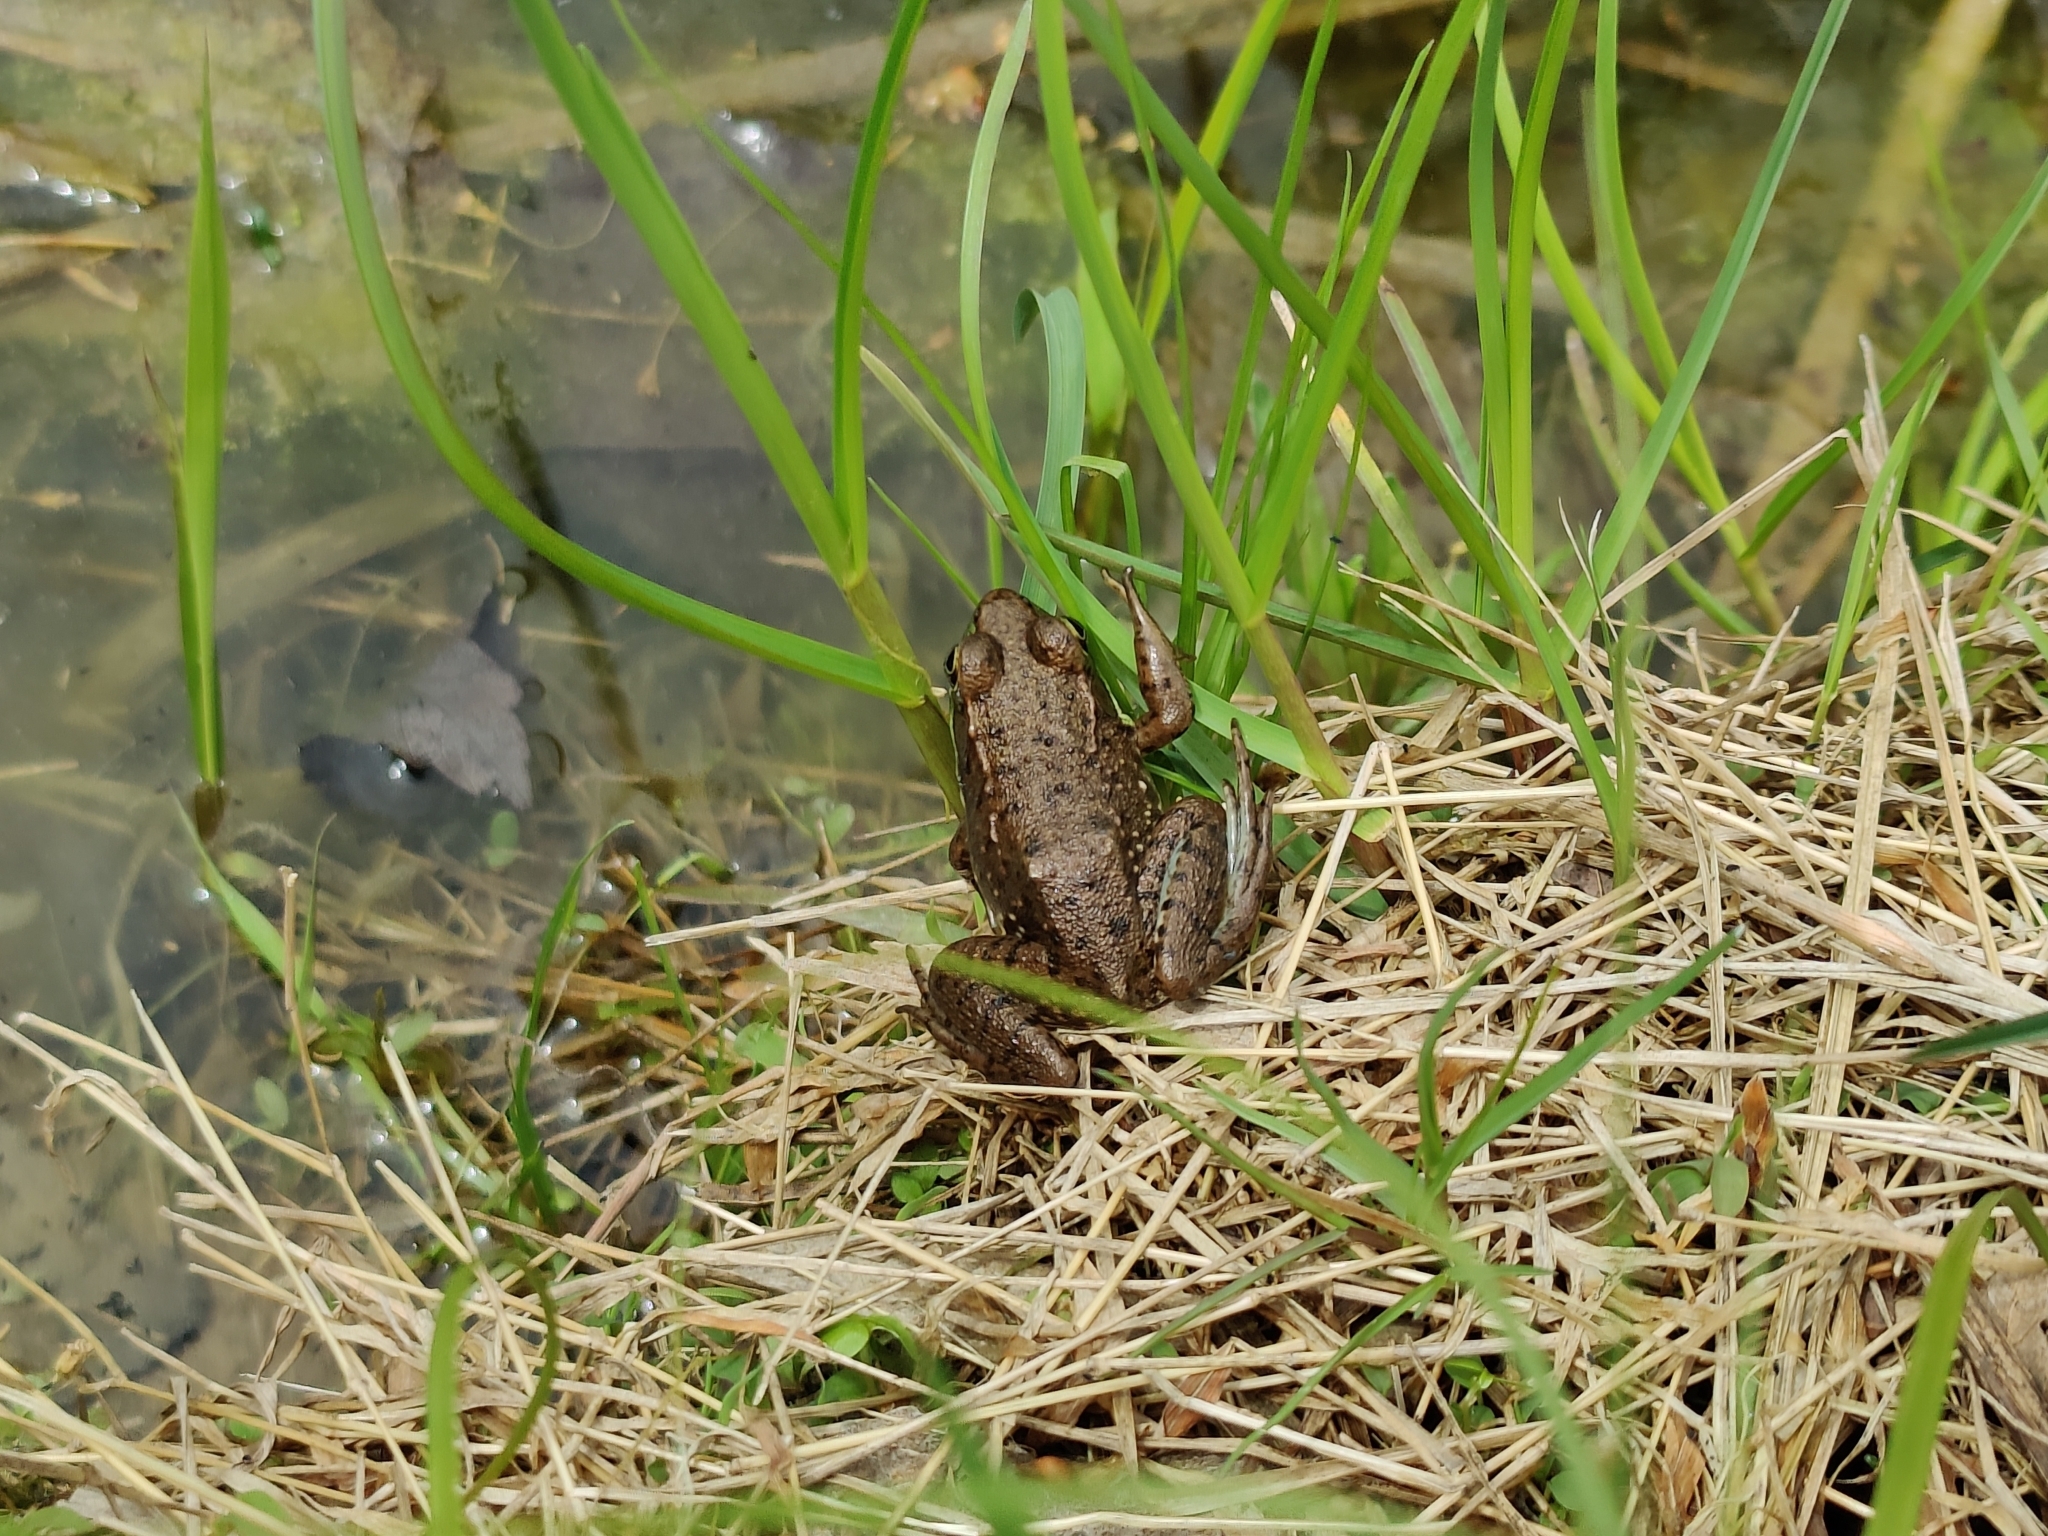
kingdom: Animalia
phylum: Chordata
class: Amphibia
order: Anura
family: Ranidae
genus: Lithobates
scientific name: Lithobates clamitans
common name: Green frog
